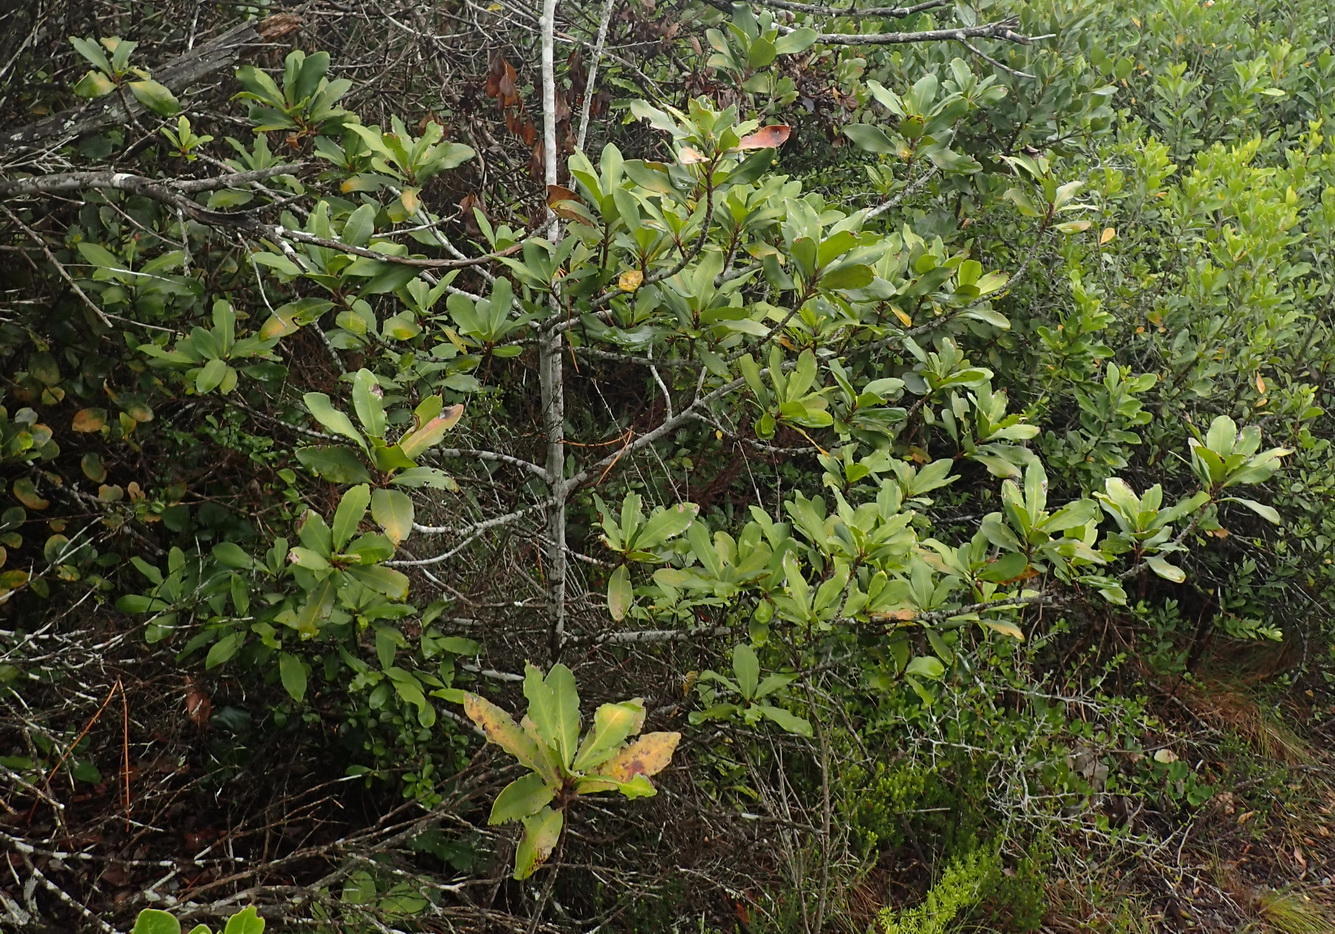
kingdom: Plantae
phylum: Tracheophyta
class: Magnoliopsida
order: Ericales
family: Primulaceae
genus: Myrsine
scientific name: Myrsine melanophloeos
